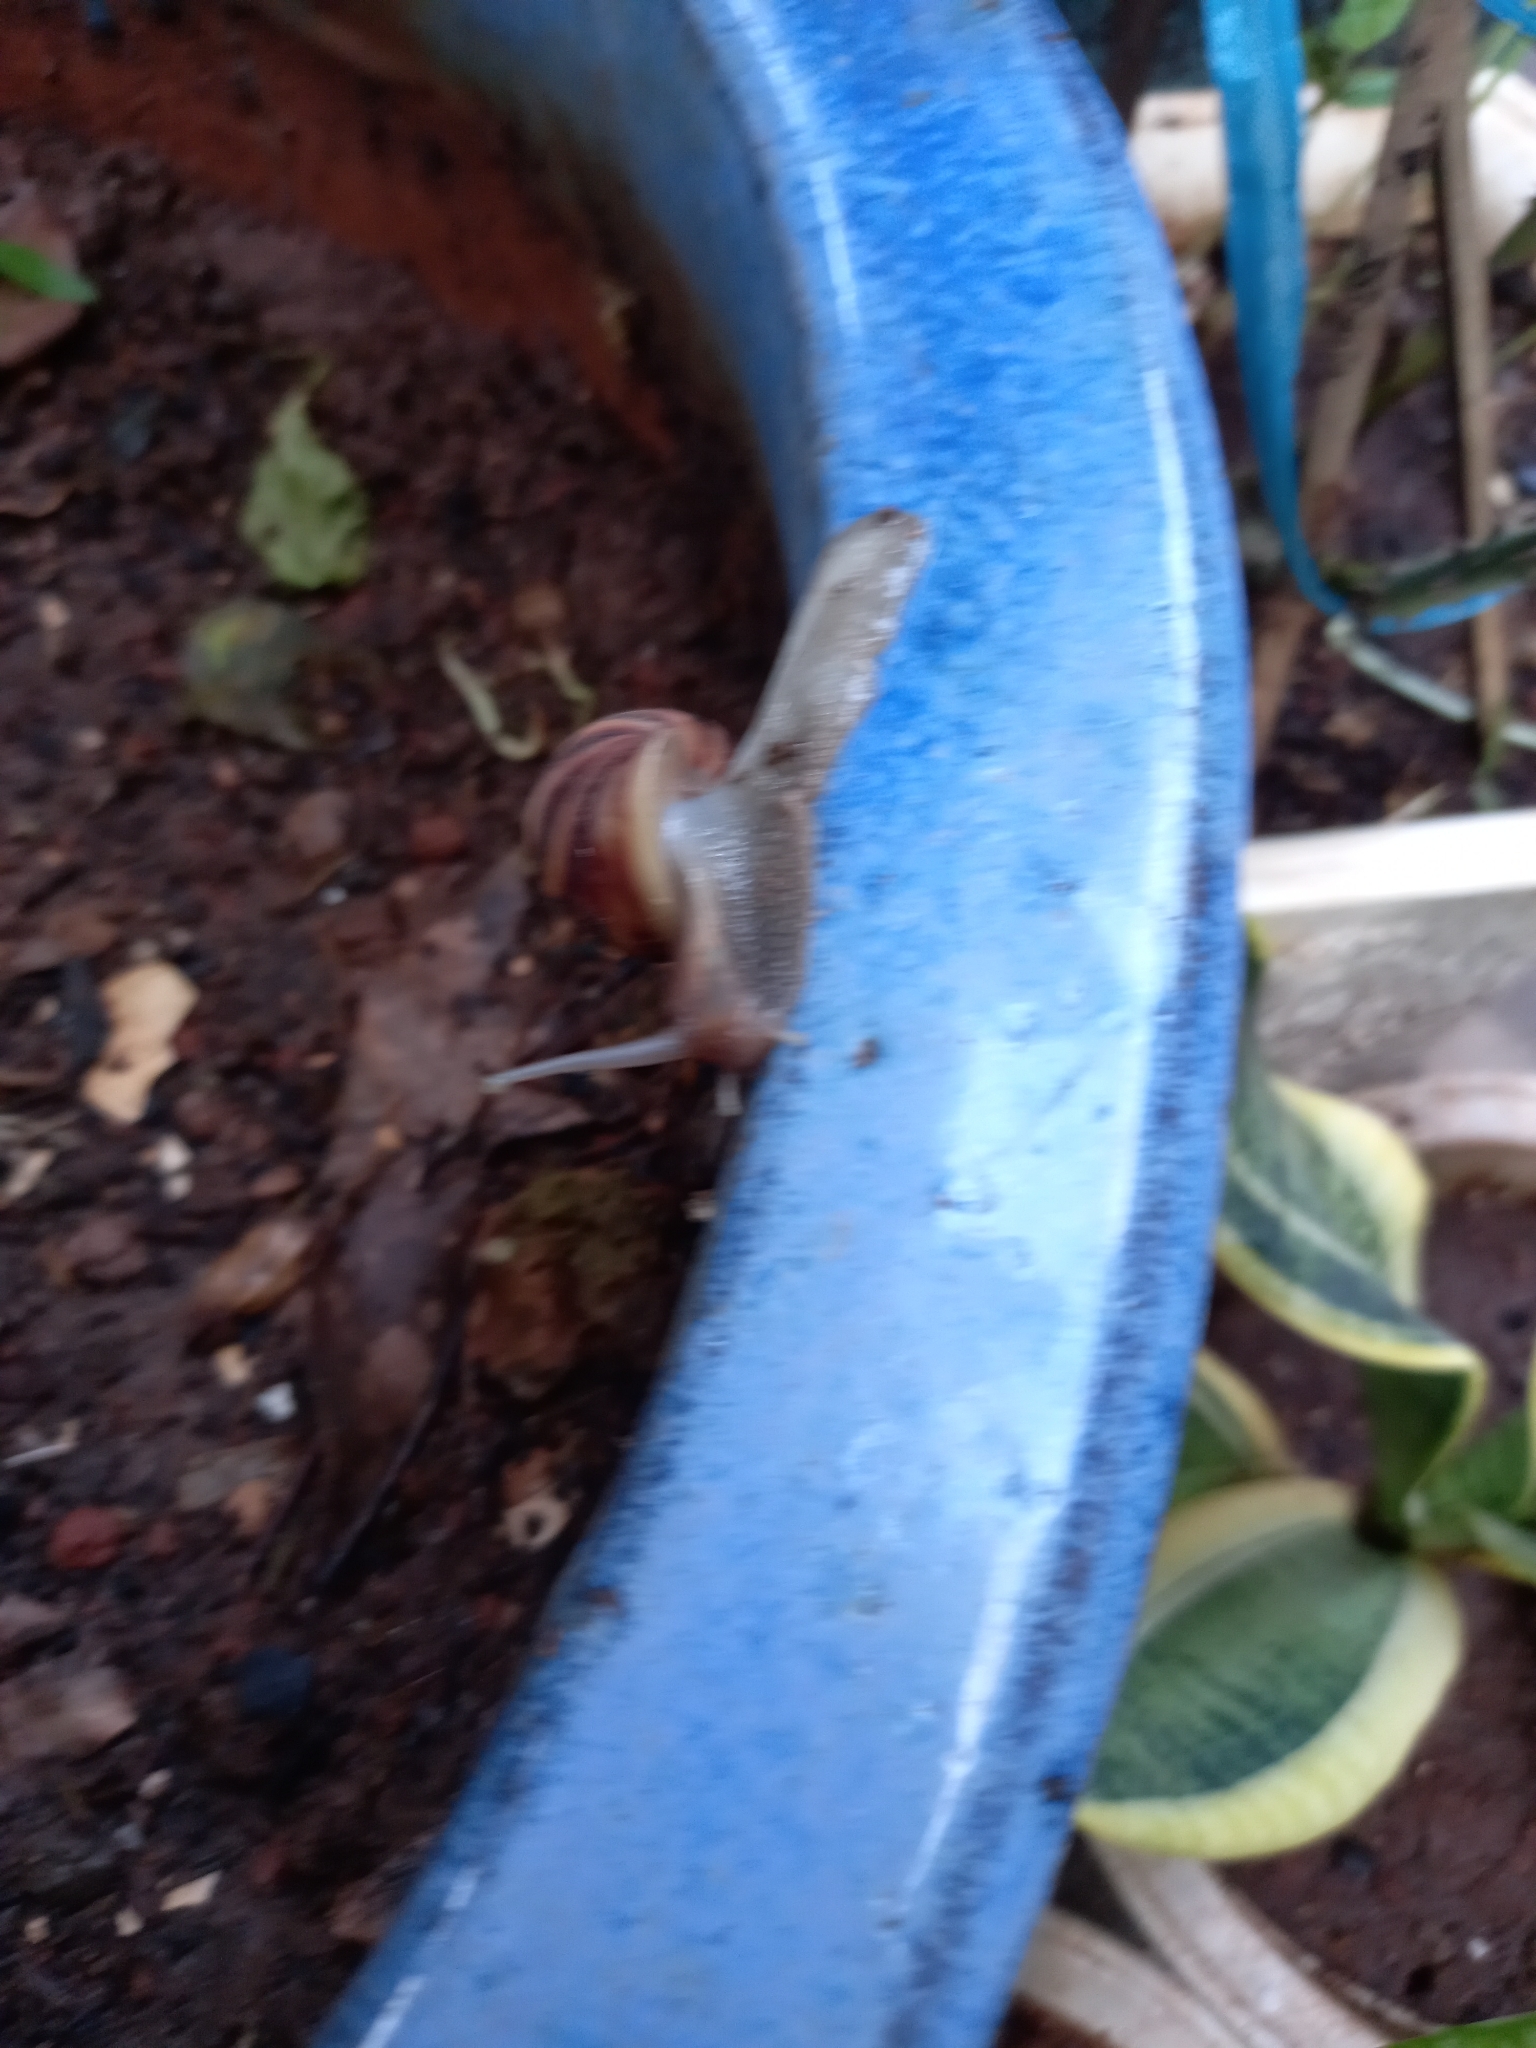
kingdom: Animalia
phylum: Mollusca
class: Gastropoda
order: Stylommatophora
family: Achatinidae
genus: Lissachatina
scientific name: Lissachatina fulica
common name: Giant african snail
